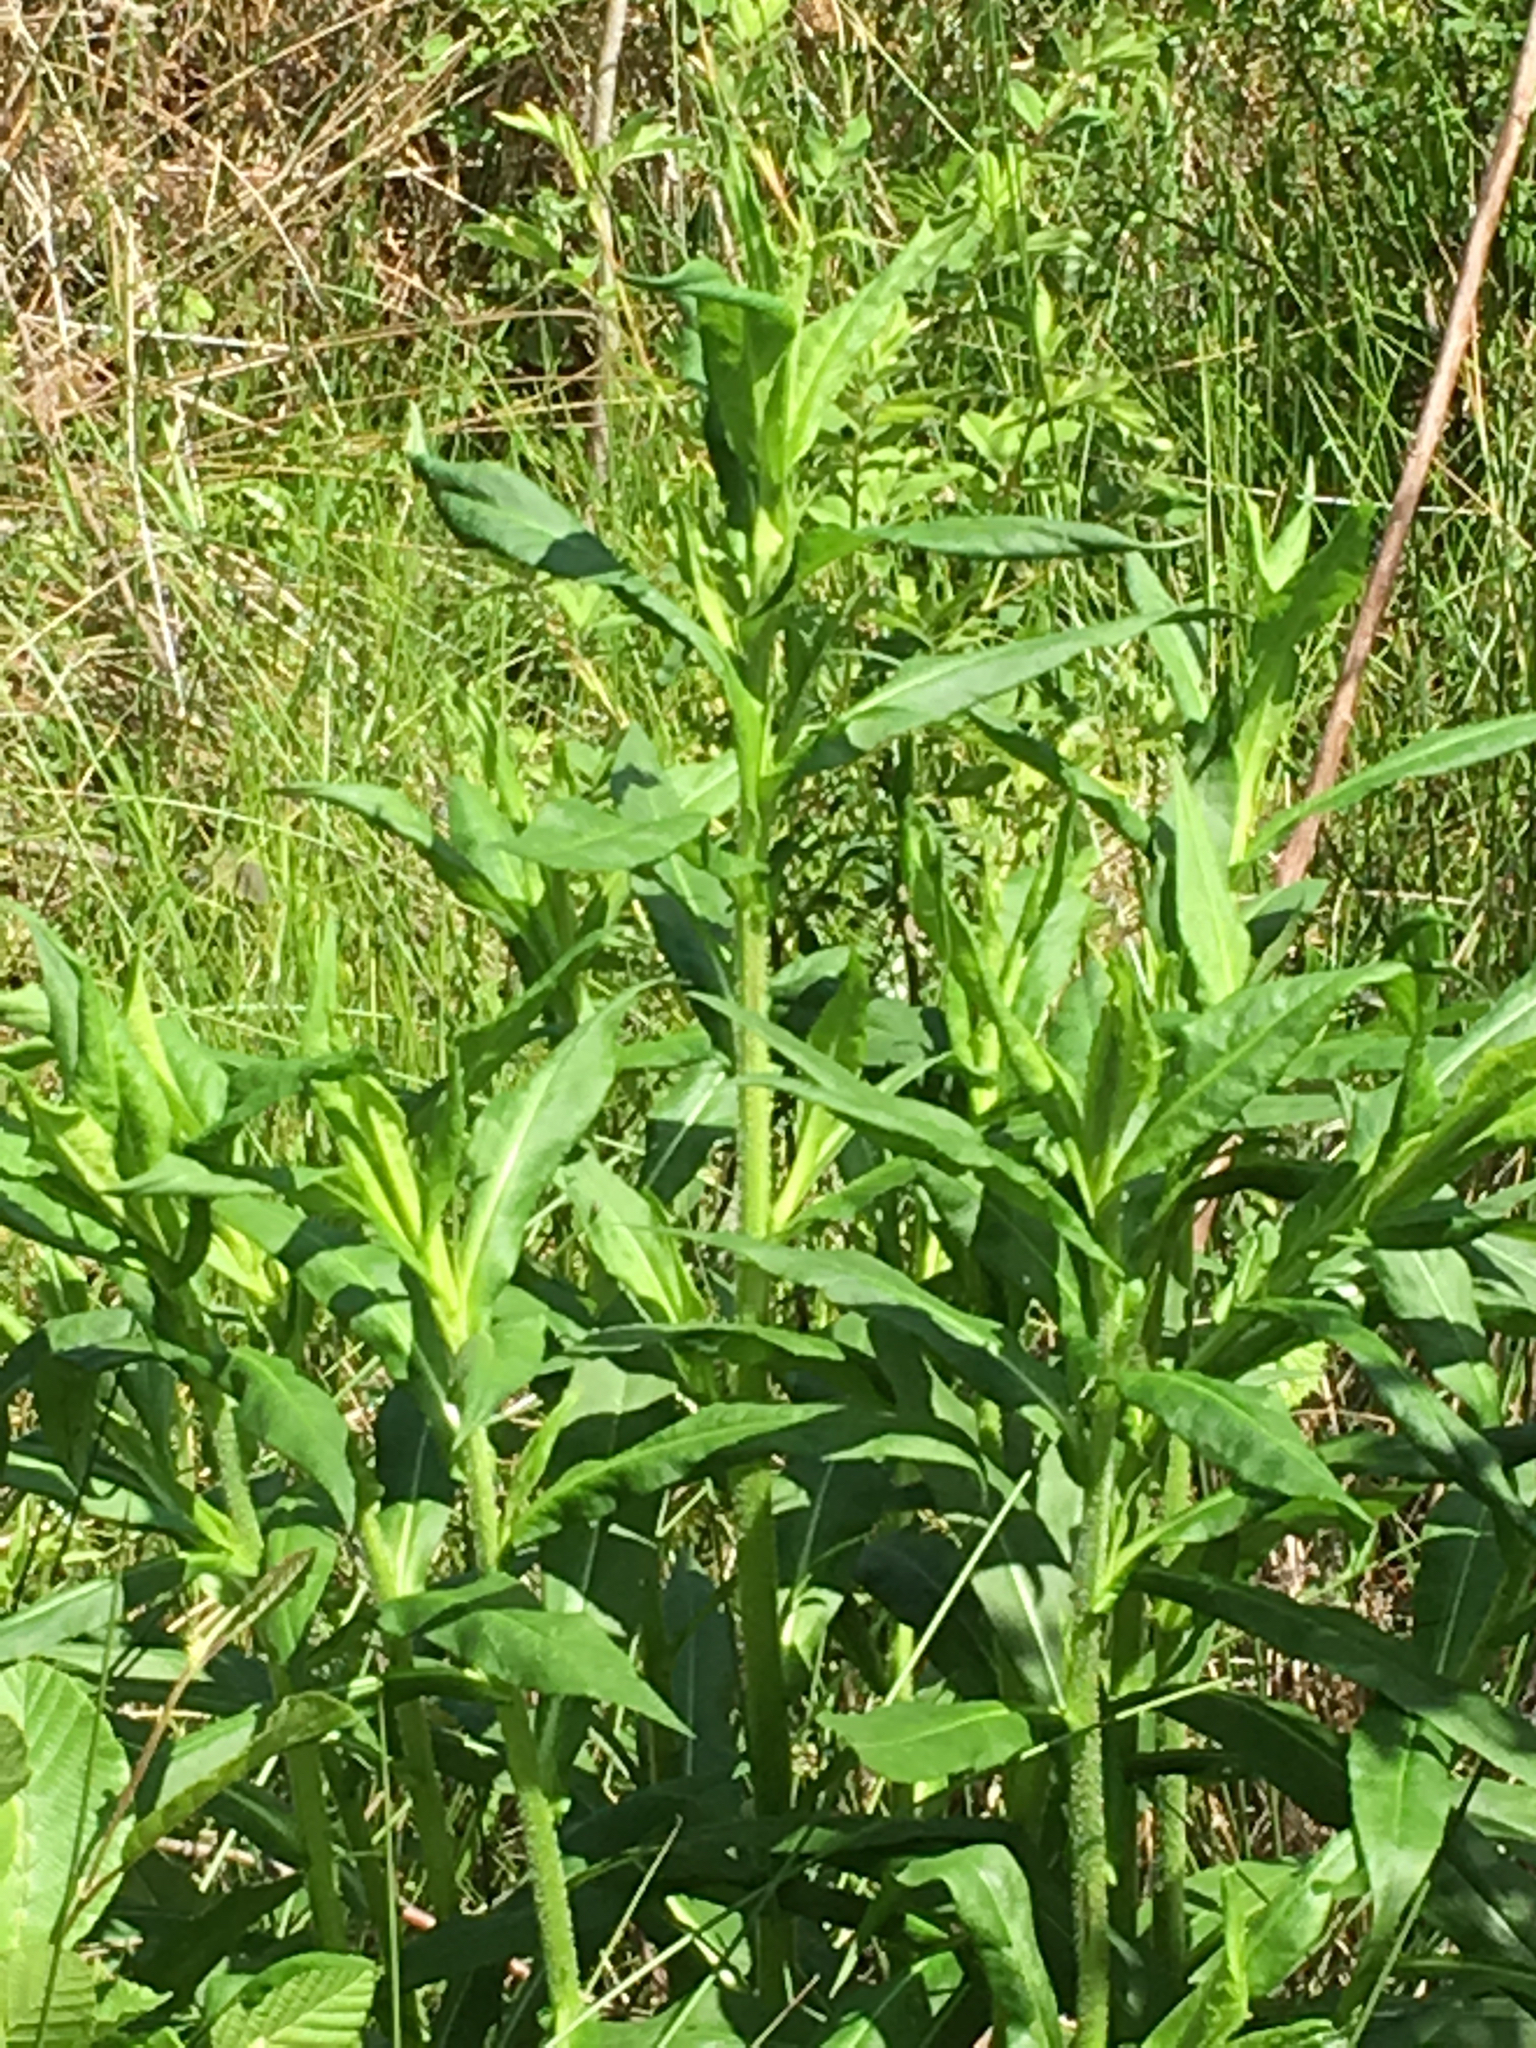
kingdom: Plantae
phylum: Tracheophyta
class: Magnoliopsida
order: Asterales
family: Asteraceae
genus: Symphyotrichum
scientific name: Symphyotrichum puniceum
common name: Bog aster
